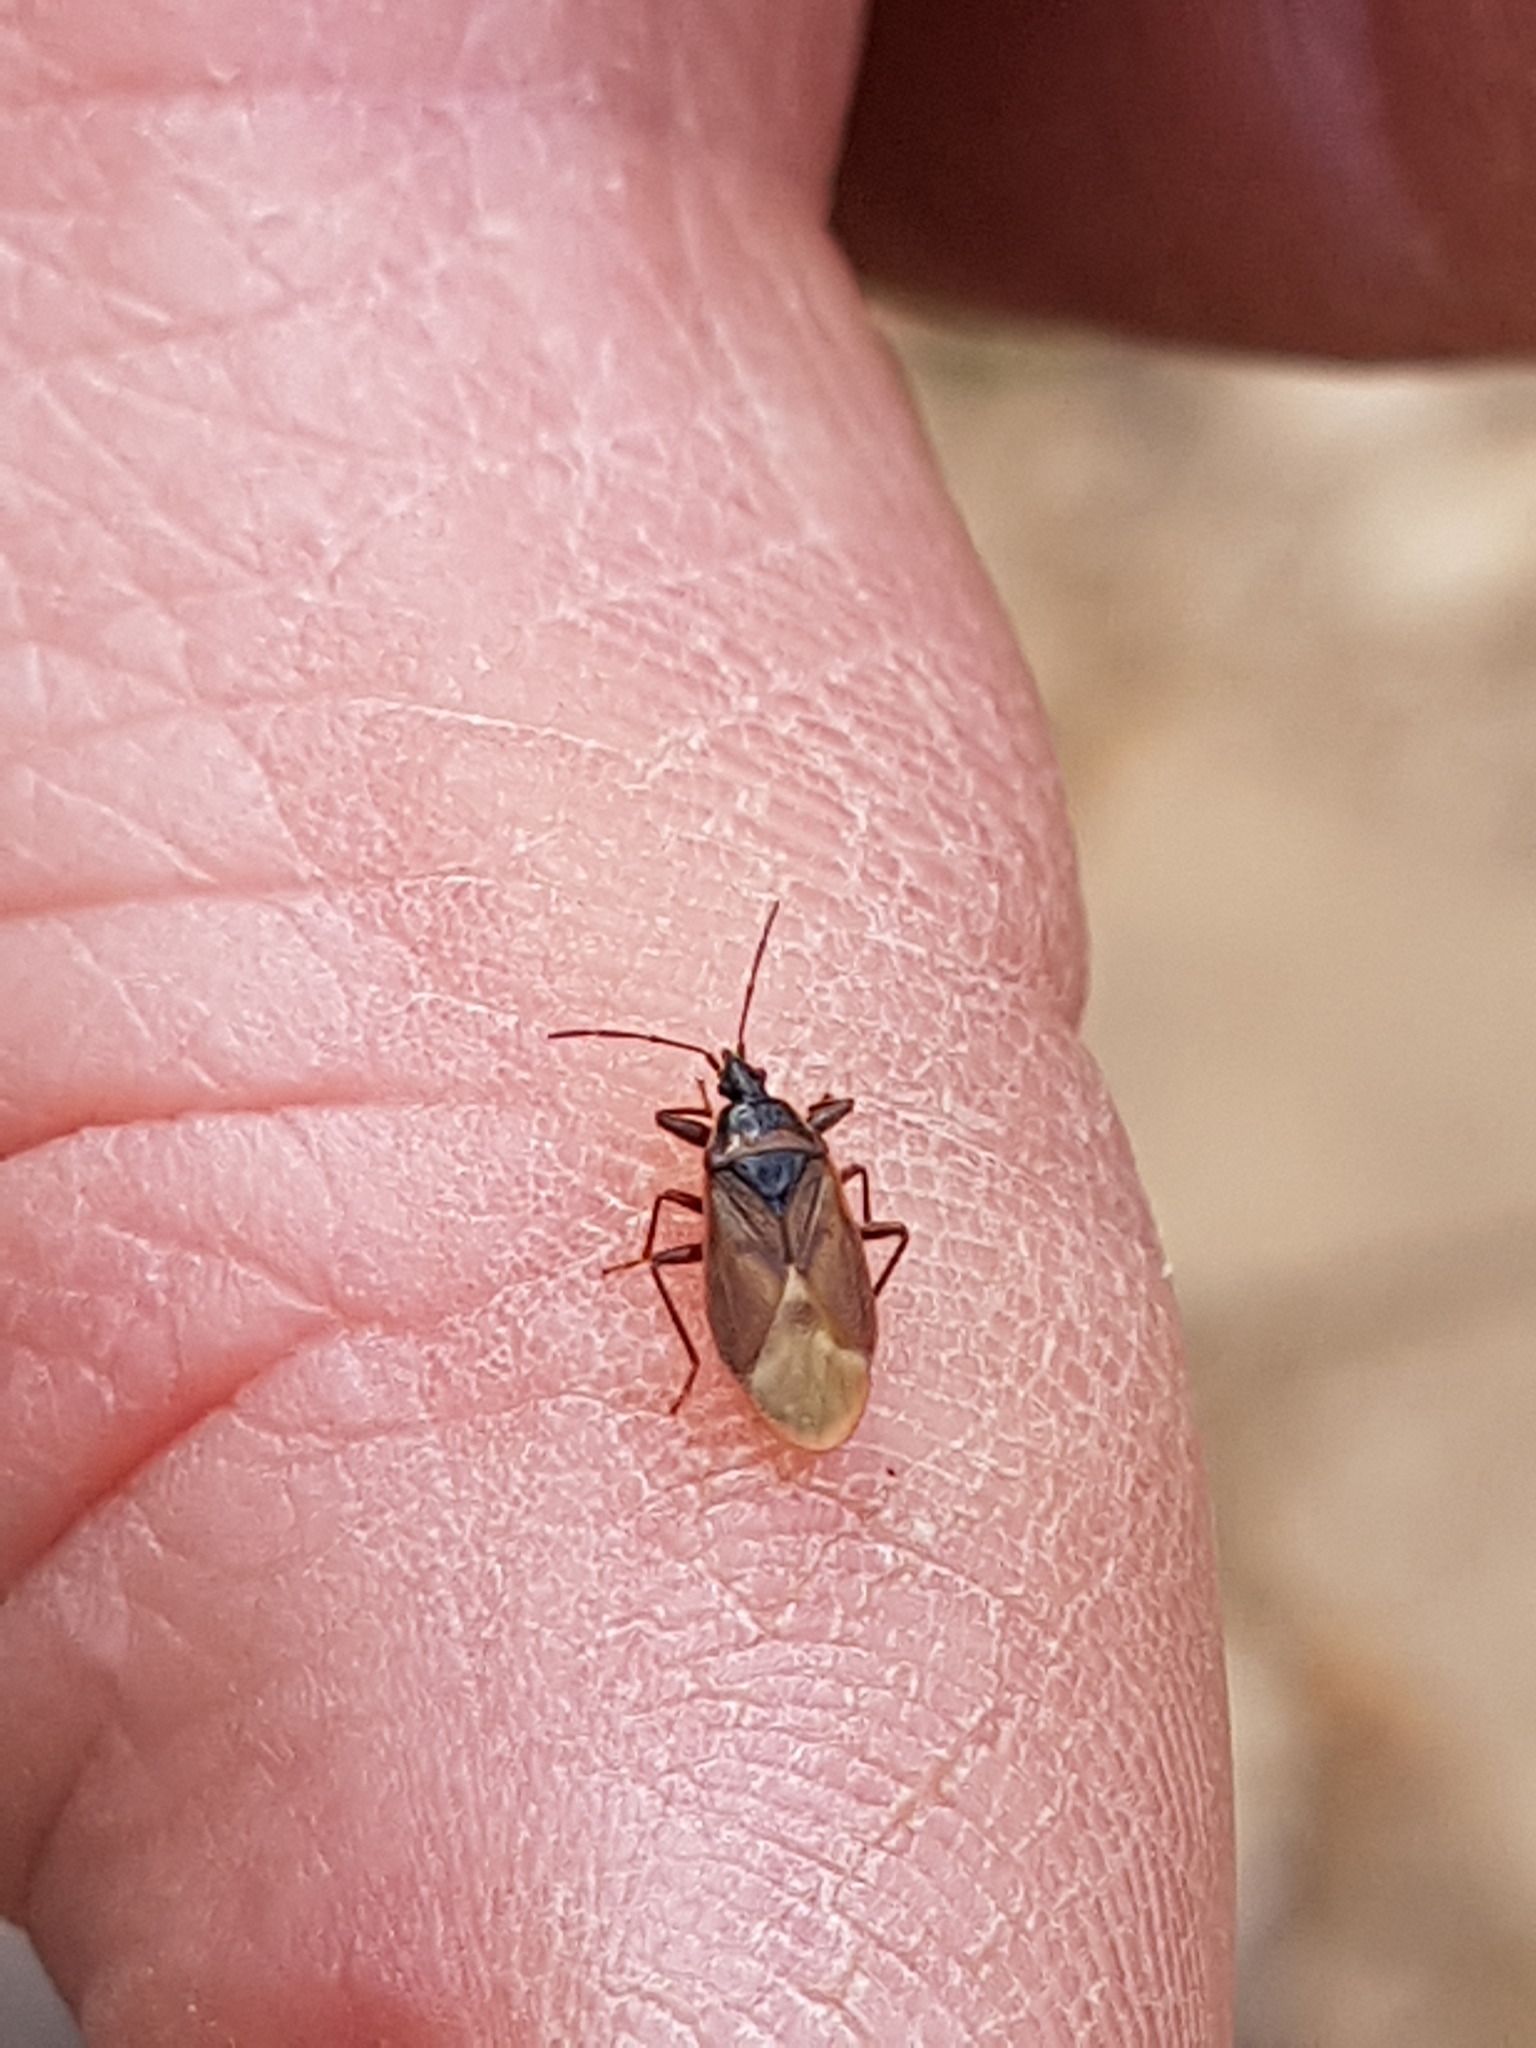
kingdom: Animalia
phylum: Arthropoda
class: Insecta
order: Hemiptera
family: Rhyparochromidae
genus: Gastrodes
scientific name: Gastrodes abietum
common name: Spruce cone bug
